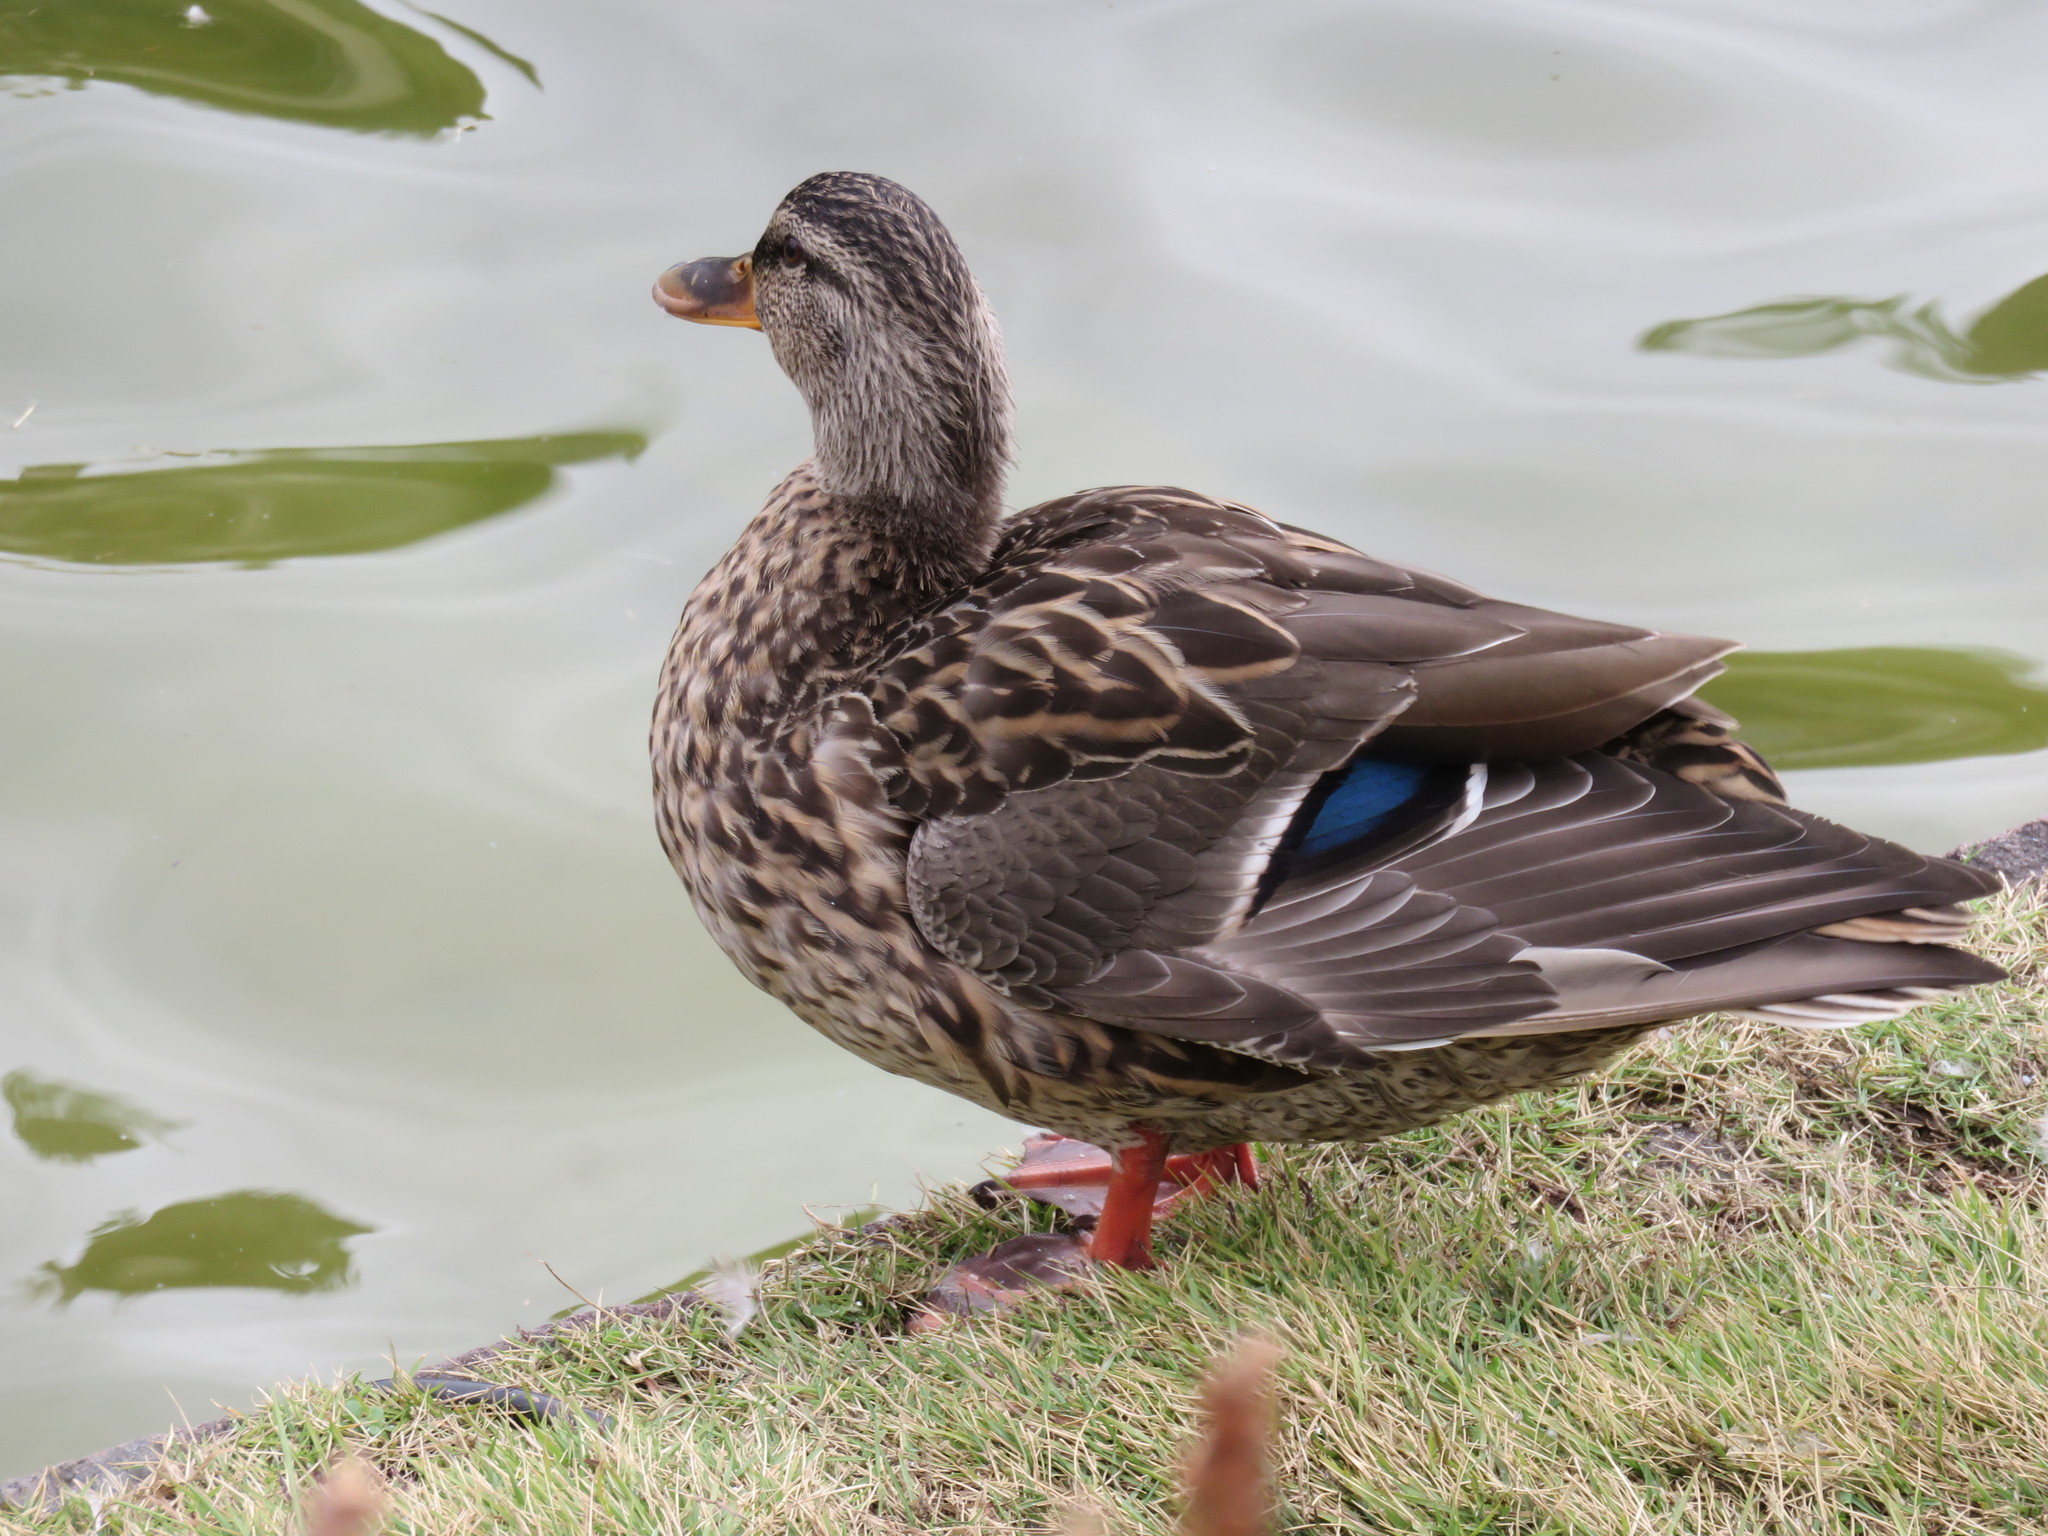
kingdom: Animalia
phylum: Chordata
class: Aves
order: Anseriformes
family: Anatidae
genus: Anas
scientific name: Anas platyrhynchos
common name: Mallard
